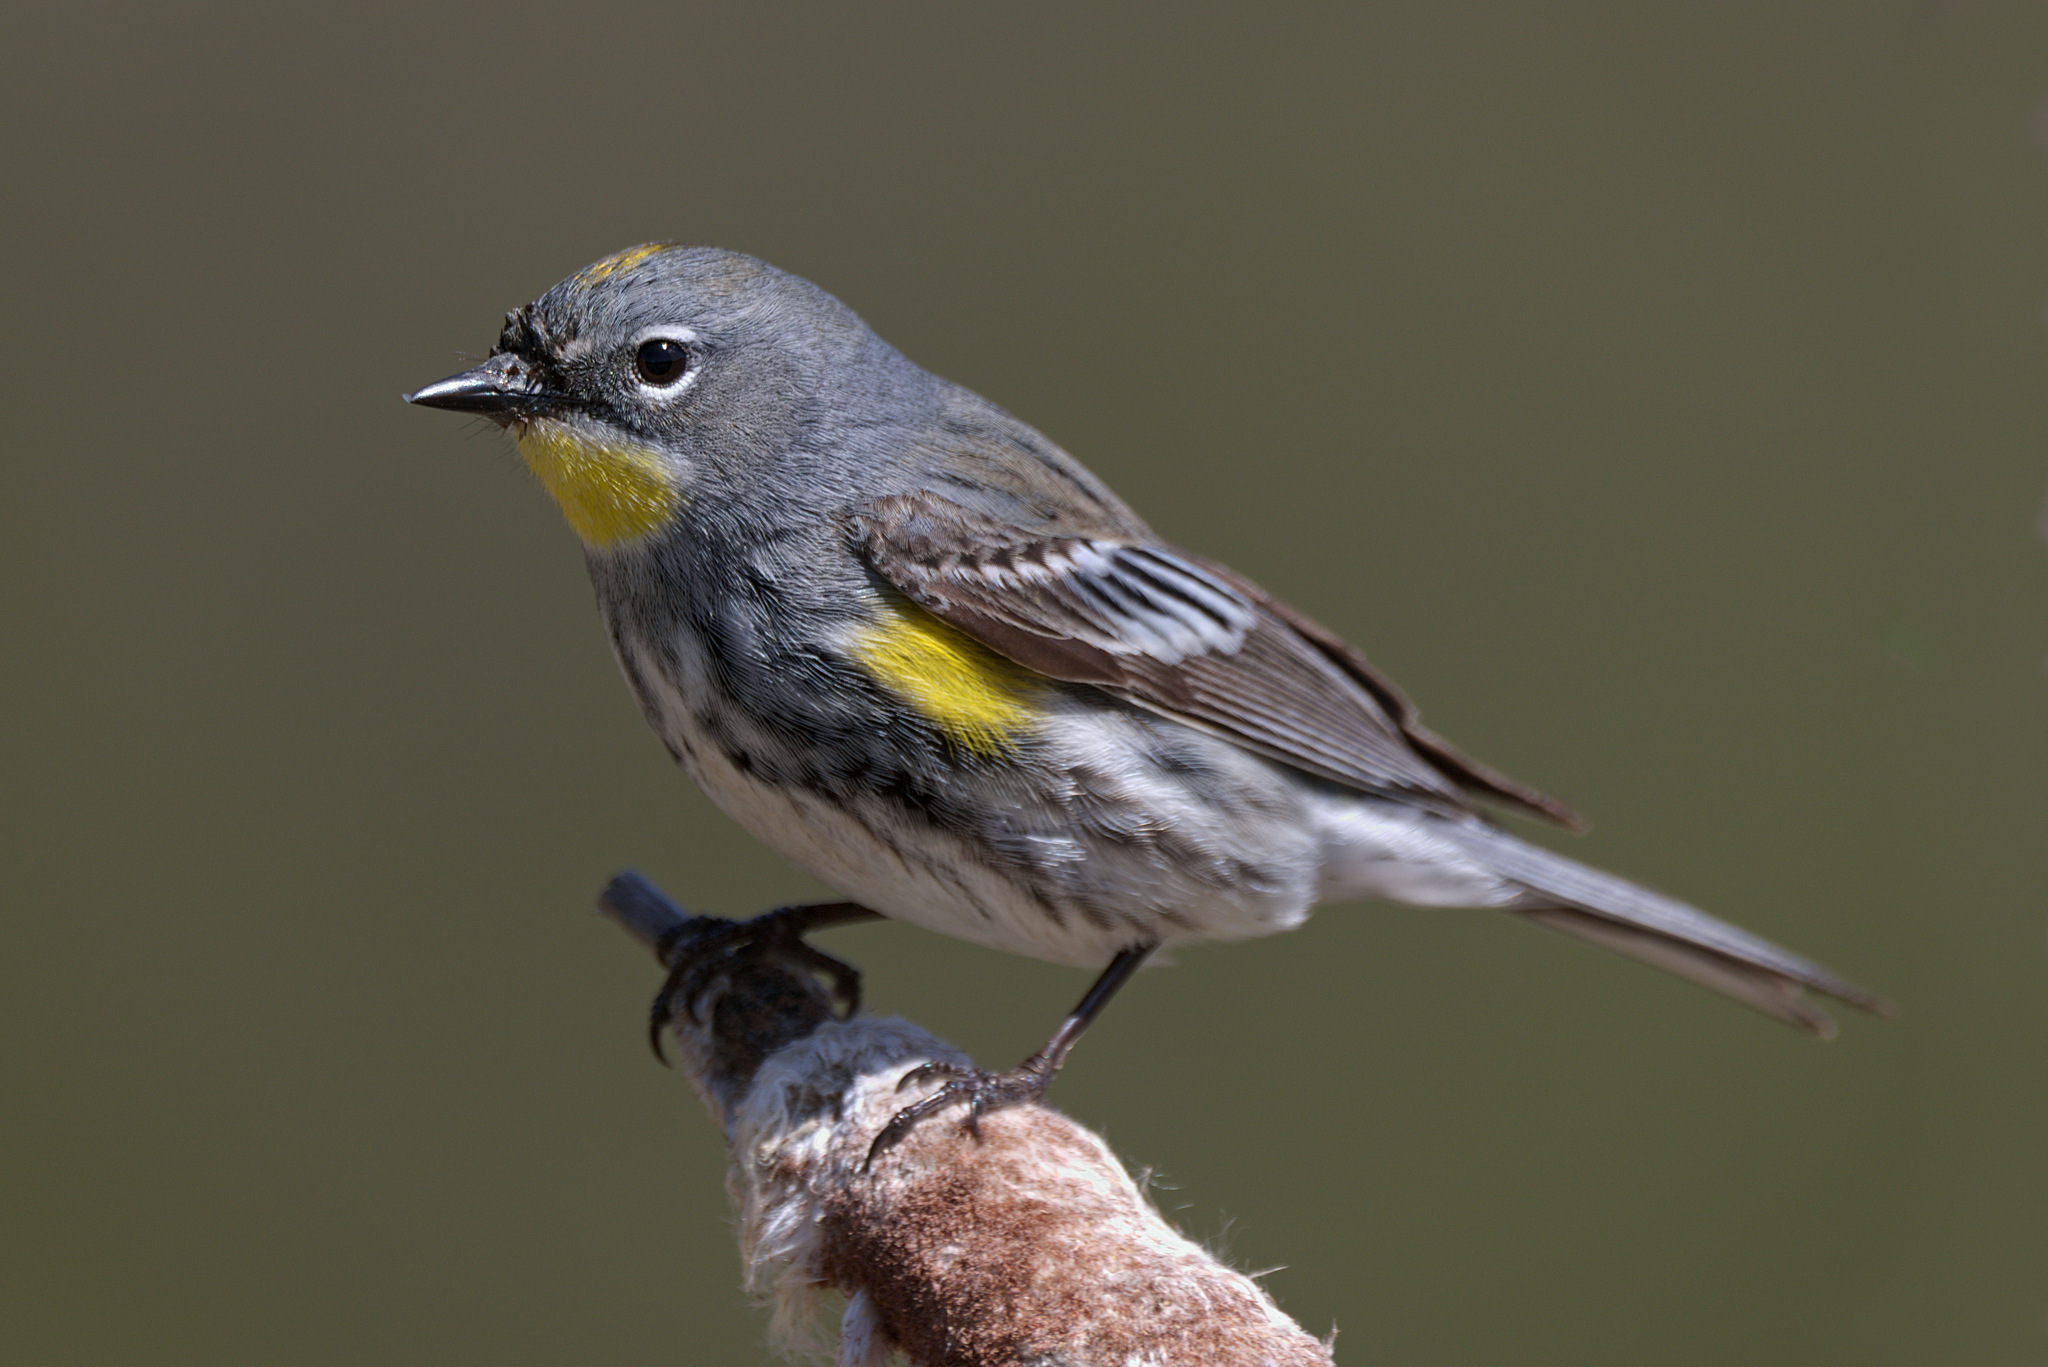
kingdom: Animalia
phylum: Chordata
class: Aves
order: Passeriformes
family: Parulidae
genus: Setophaga
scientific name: Setophaga auduboni
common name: Audubon's warbler
